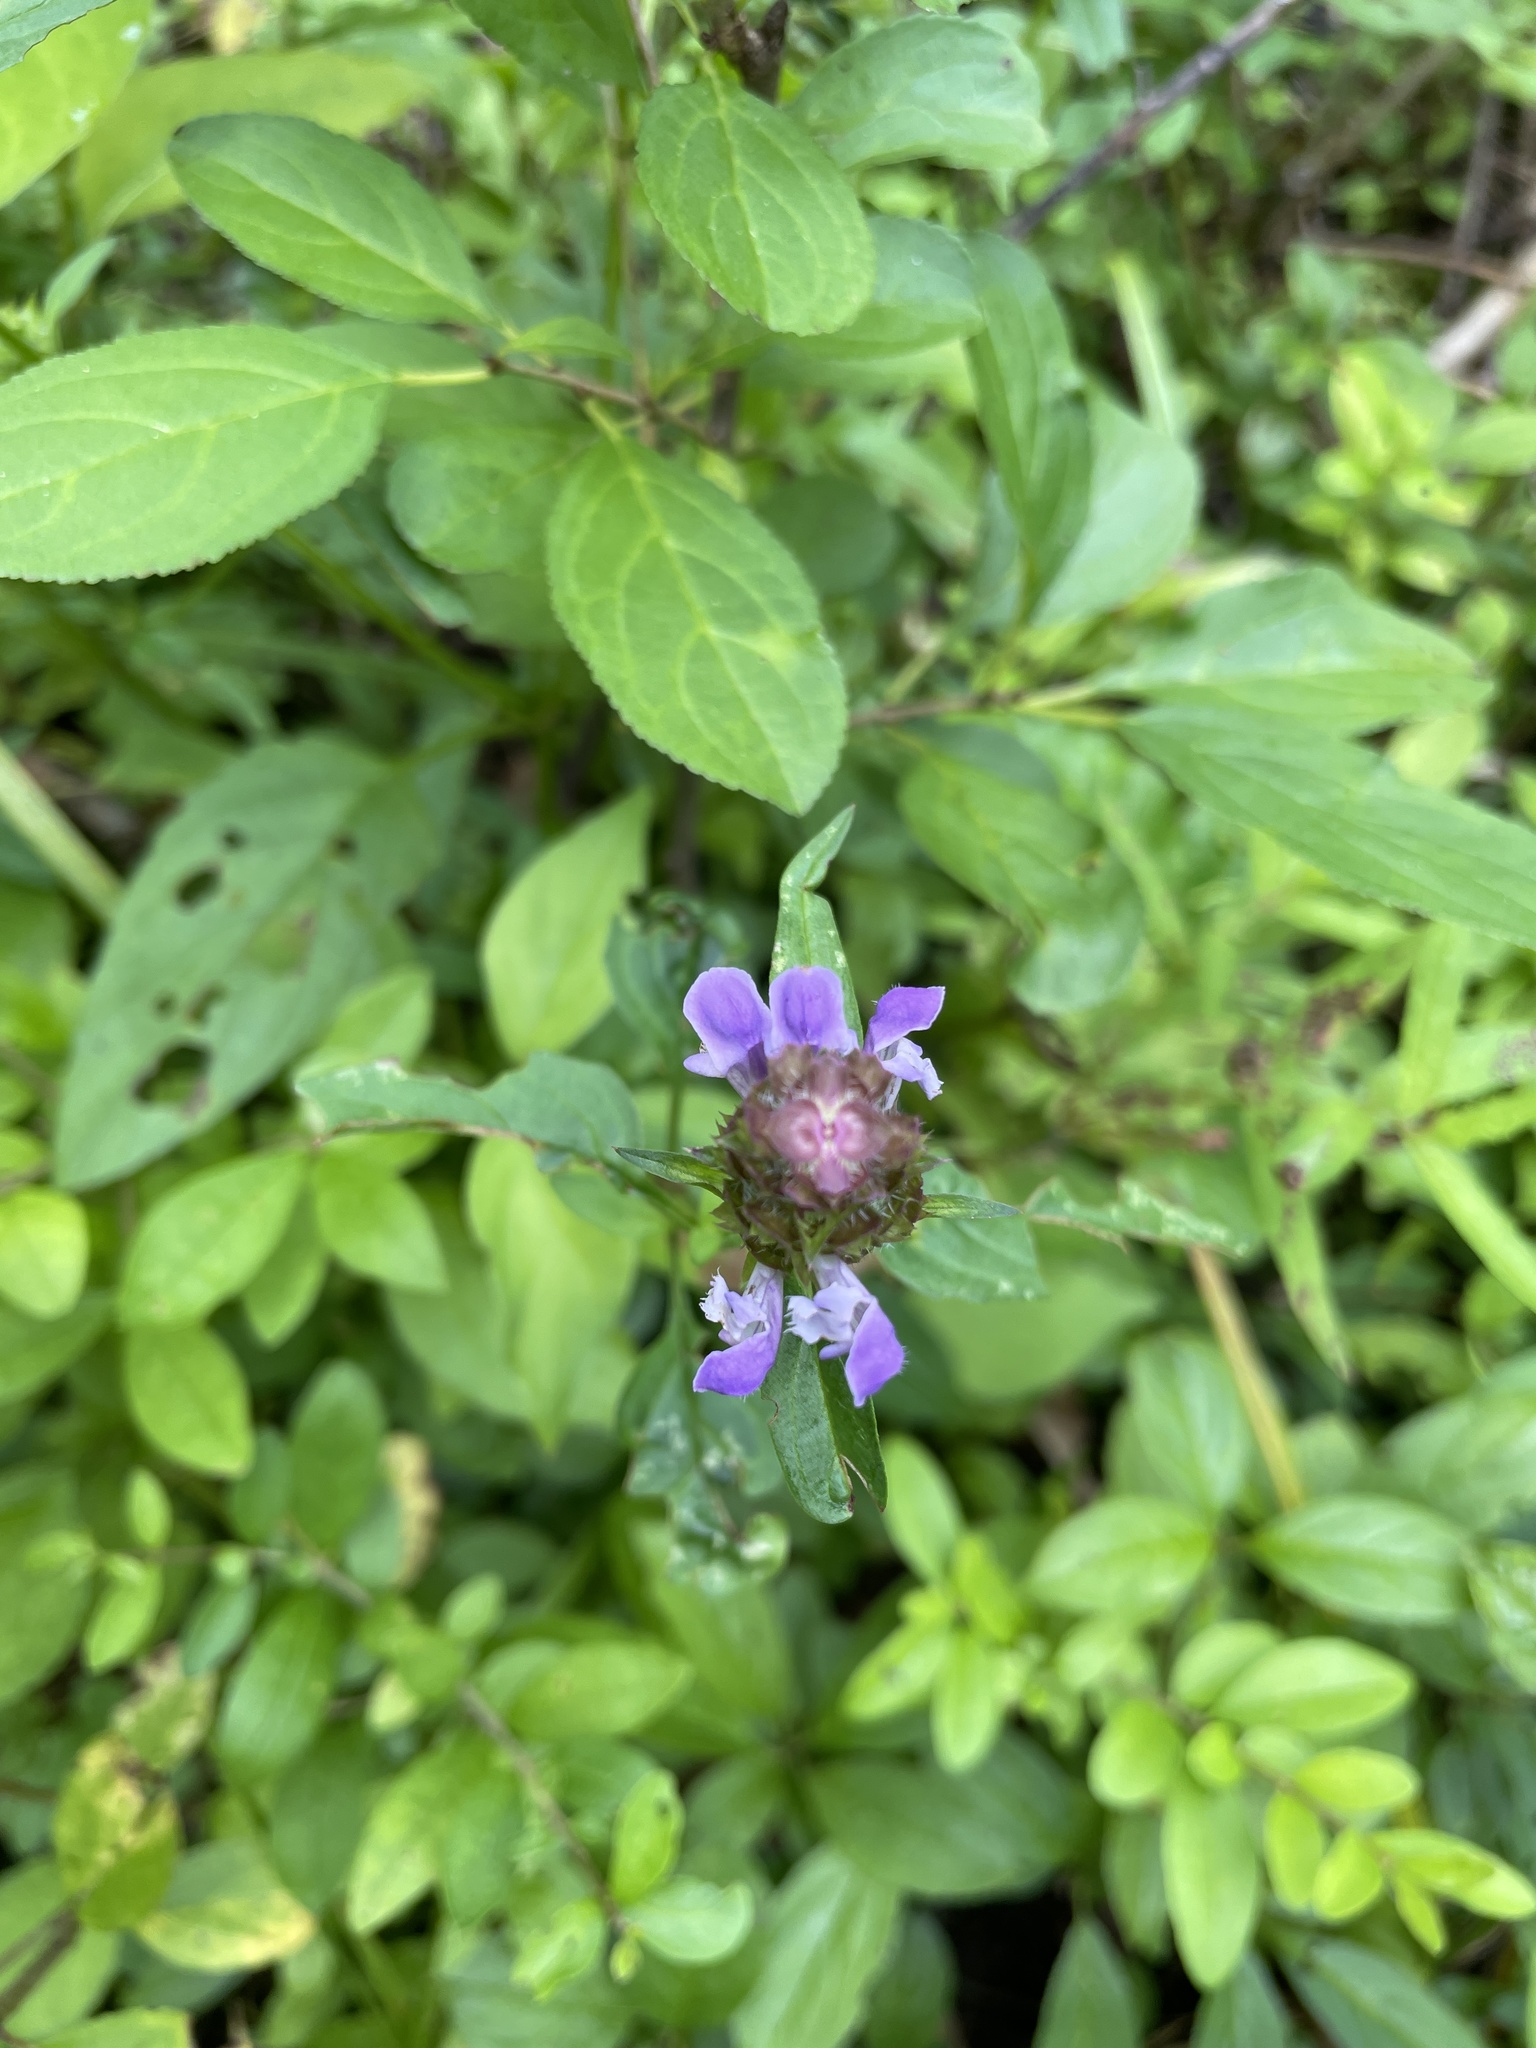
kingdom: Plantae
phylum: Tracheophyta
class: Magnoliopsida
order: Lamiales
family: Lamiaceae
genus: Prunella
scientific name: Prunella vulgaris
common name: Heal-all
